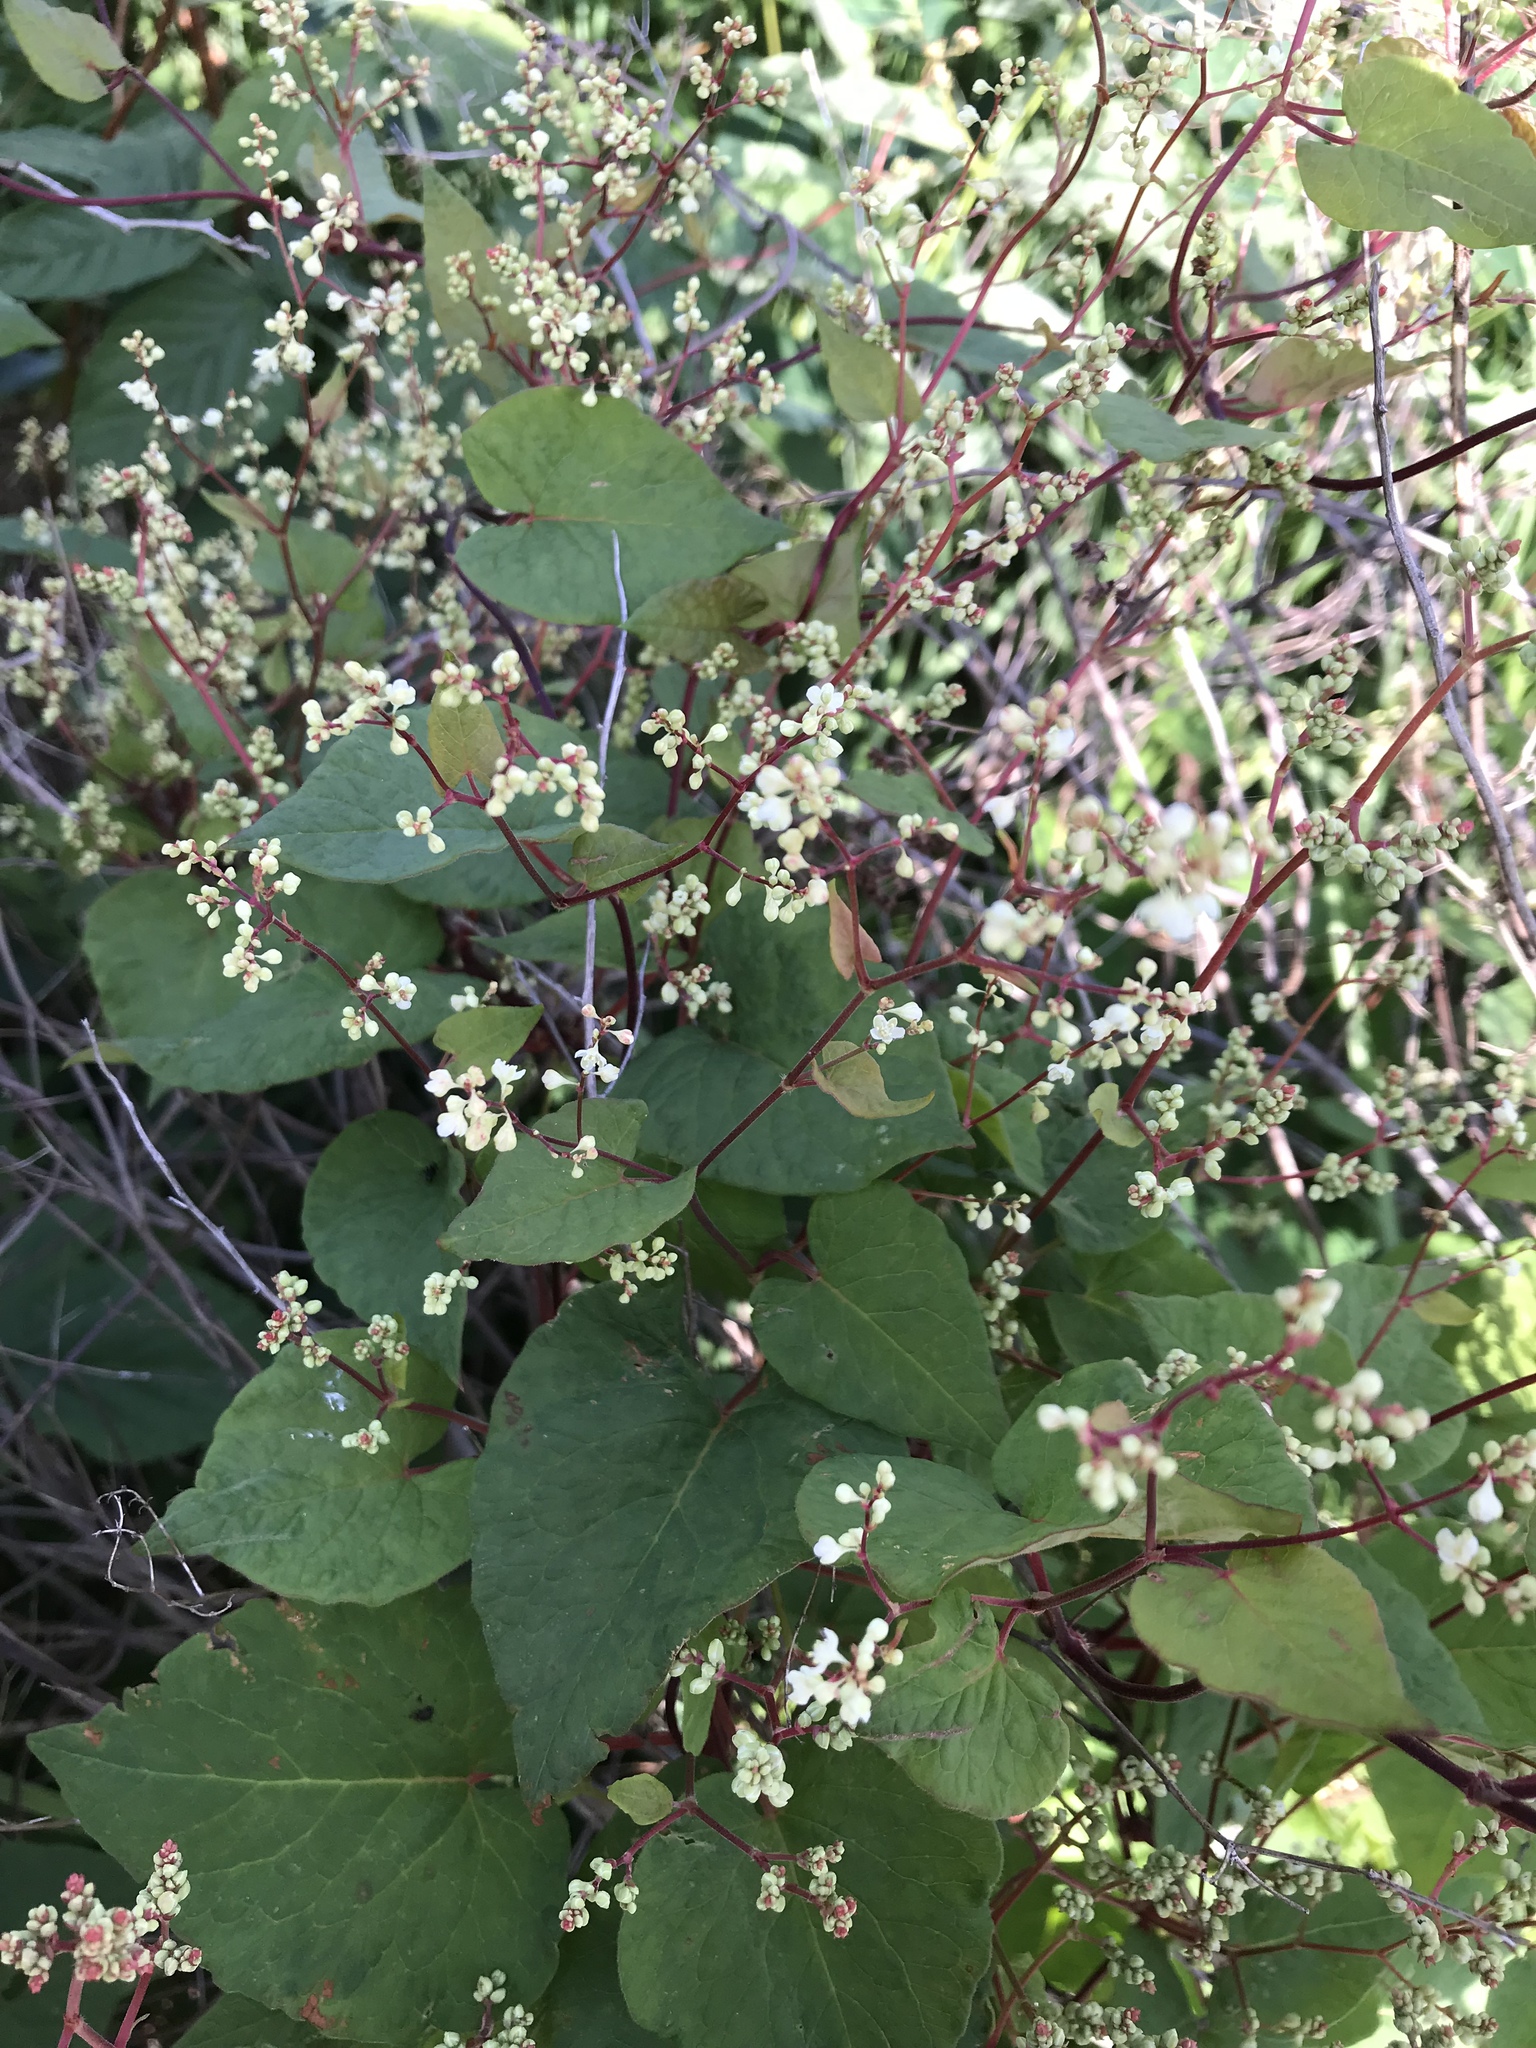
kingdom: Plantae
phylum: Tracheophyta
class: Magnoliopsida
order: Caryophyllales
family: Polygonaceae
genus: Parogonum
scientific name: Parogonum ciliinode
